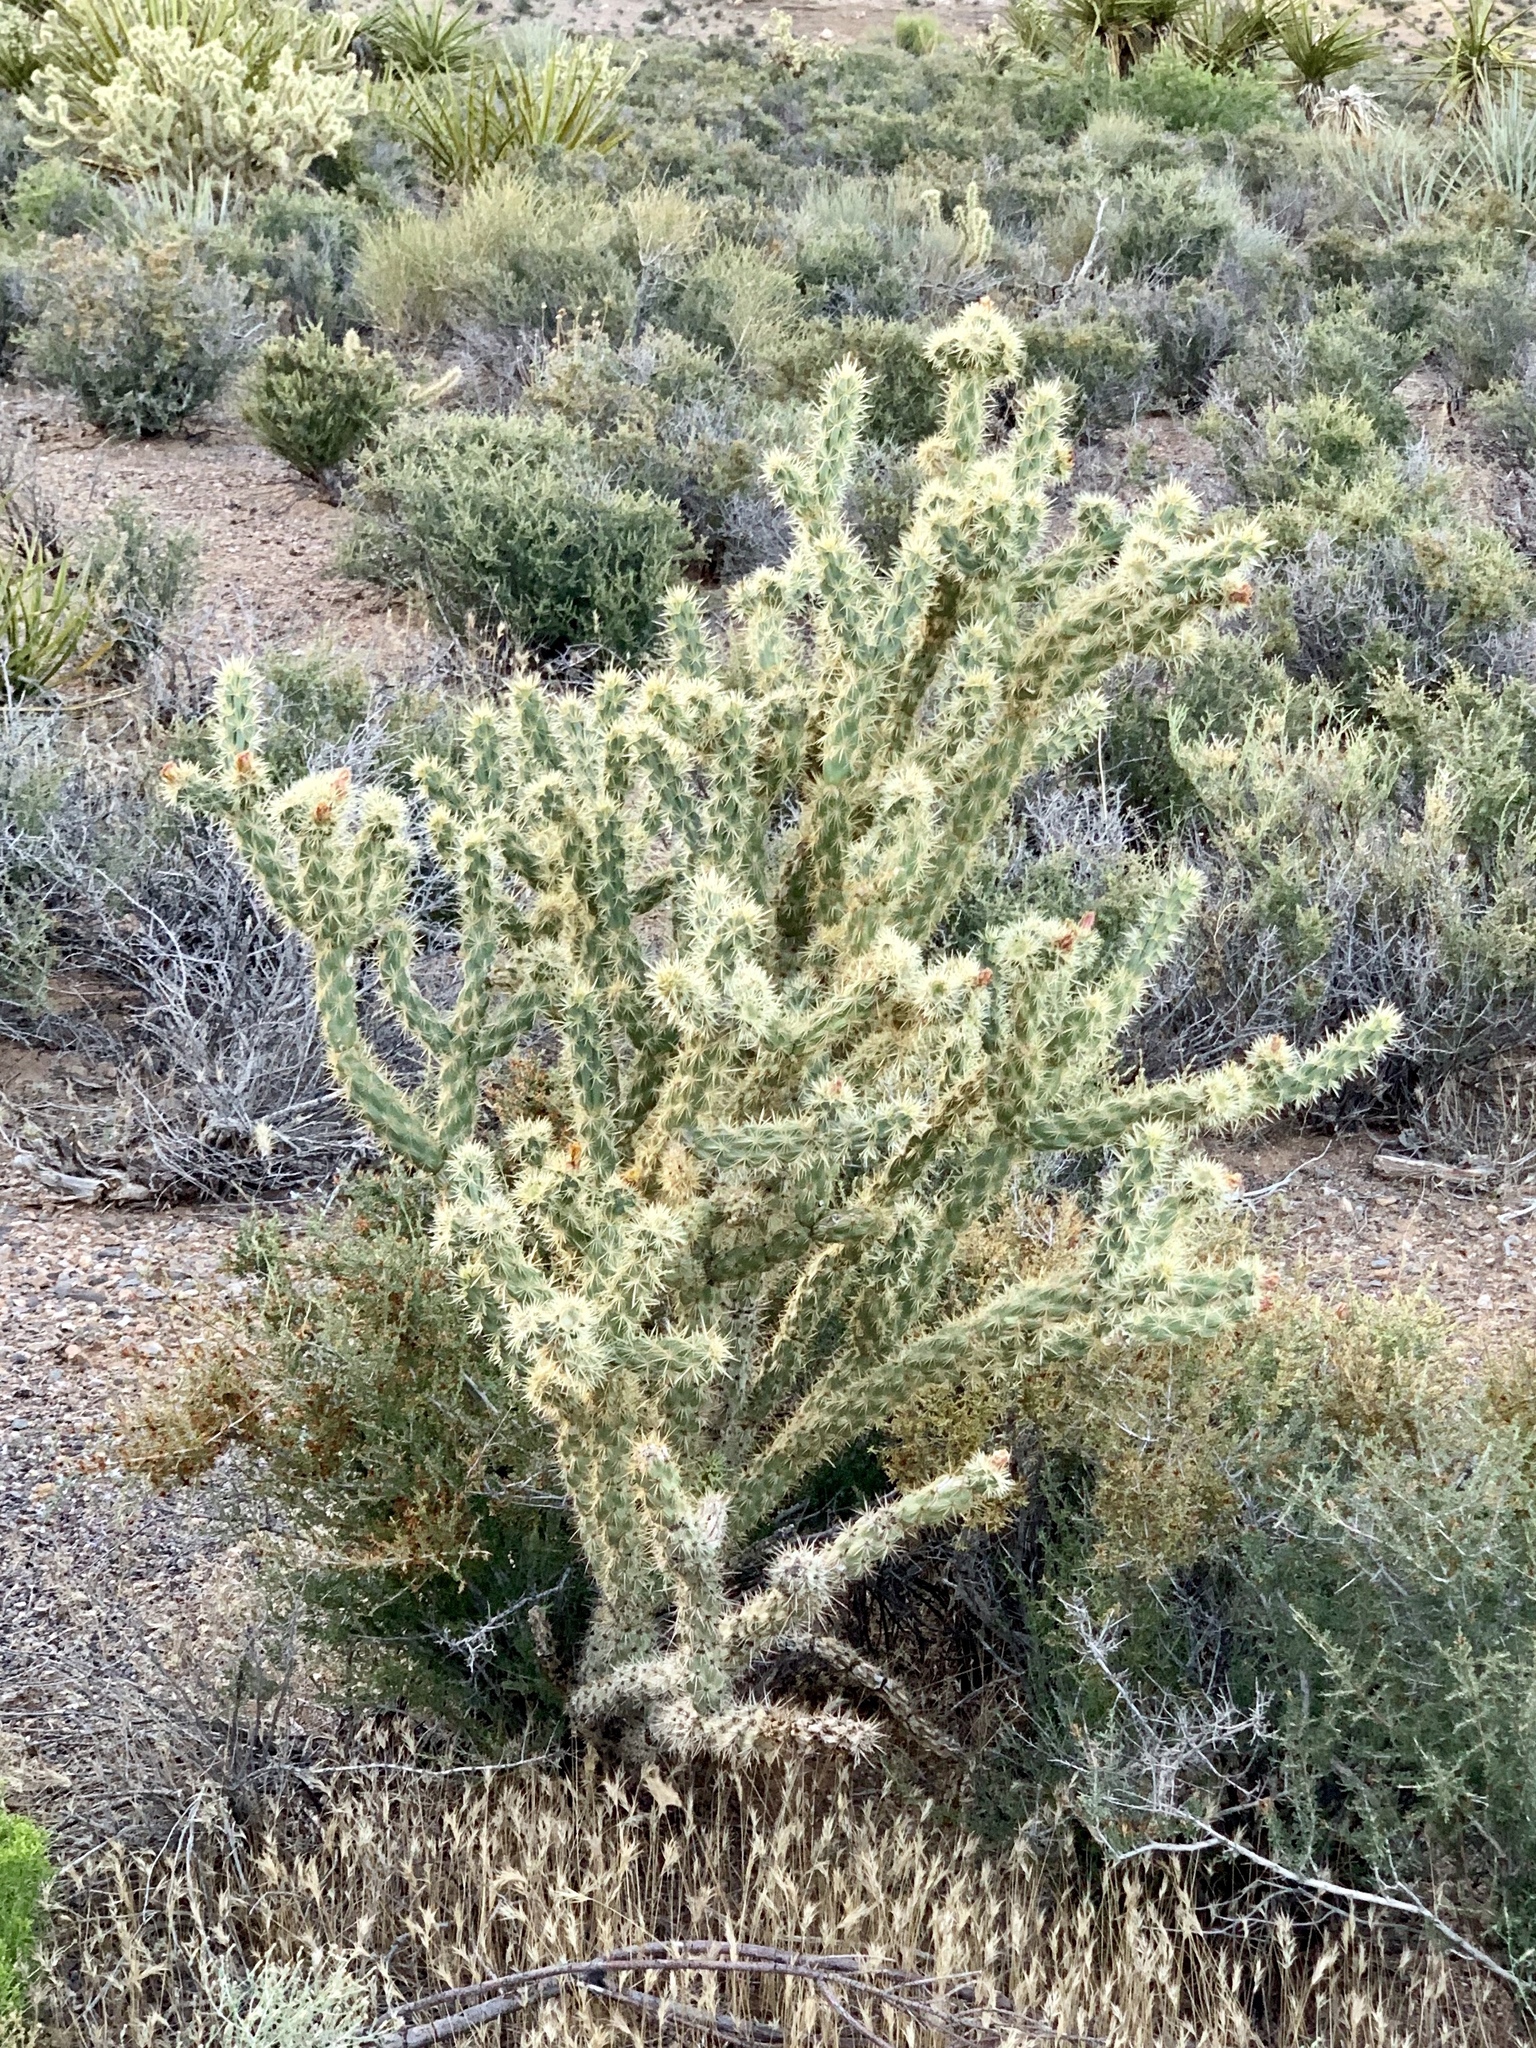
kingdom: Plantae
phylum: Tracheophyta
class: Magnoliopsida
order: Caryophyllales
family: Cactaceae
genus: Cylindropuntia
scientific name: Cylindropuntia acanthocarpa
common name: Buckhorn cholla
